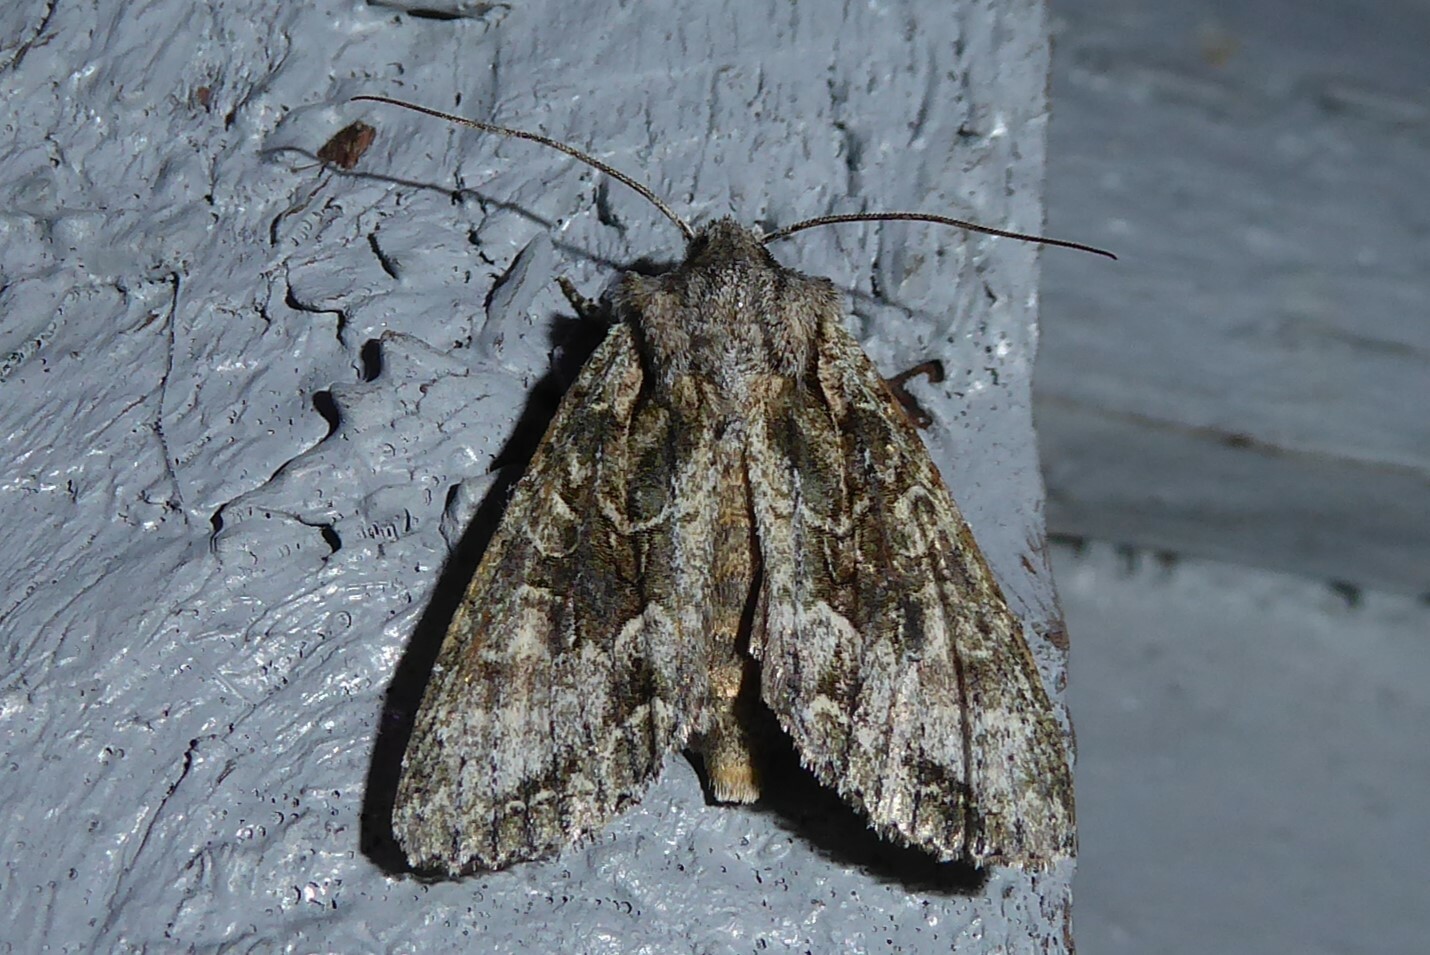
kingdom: Animalia
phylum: Arthropoda
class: Insecta
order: Lepidoptera
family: Noctuidae
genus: Ichneutica
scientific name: Ichneutica mutans
